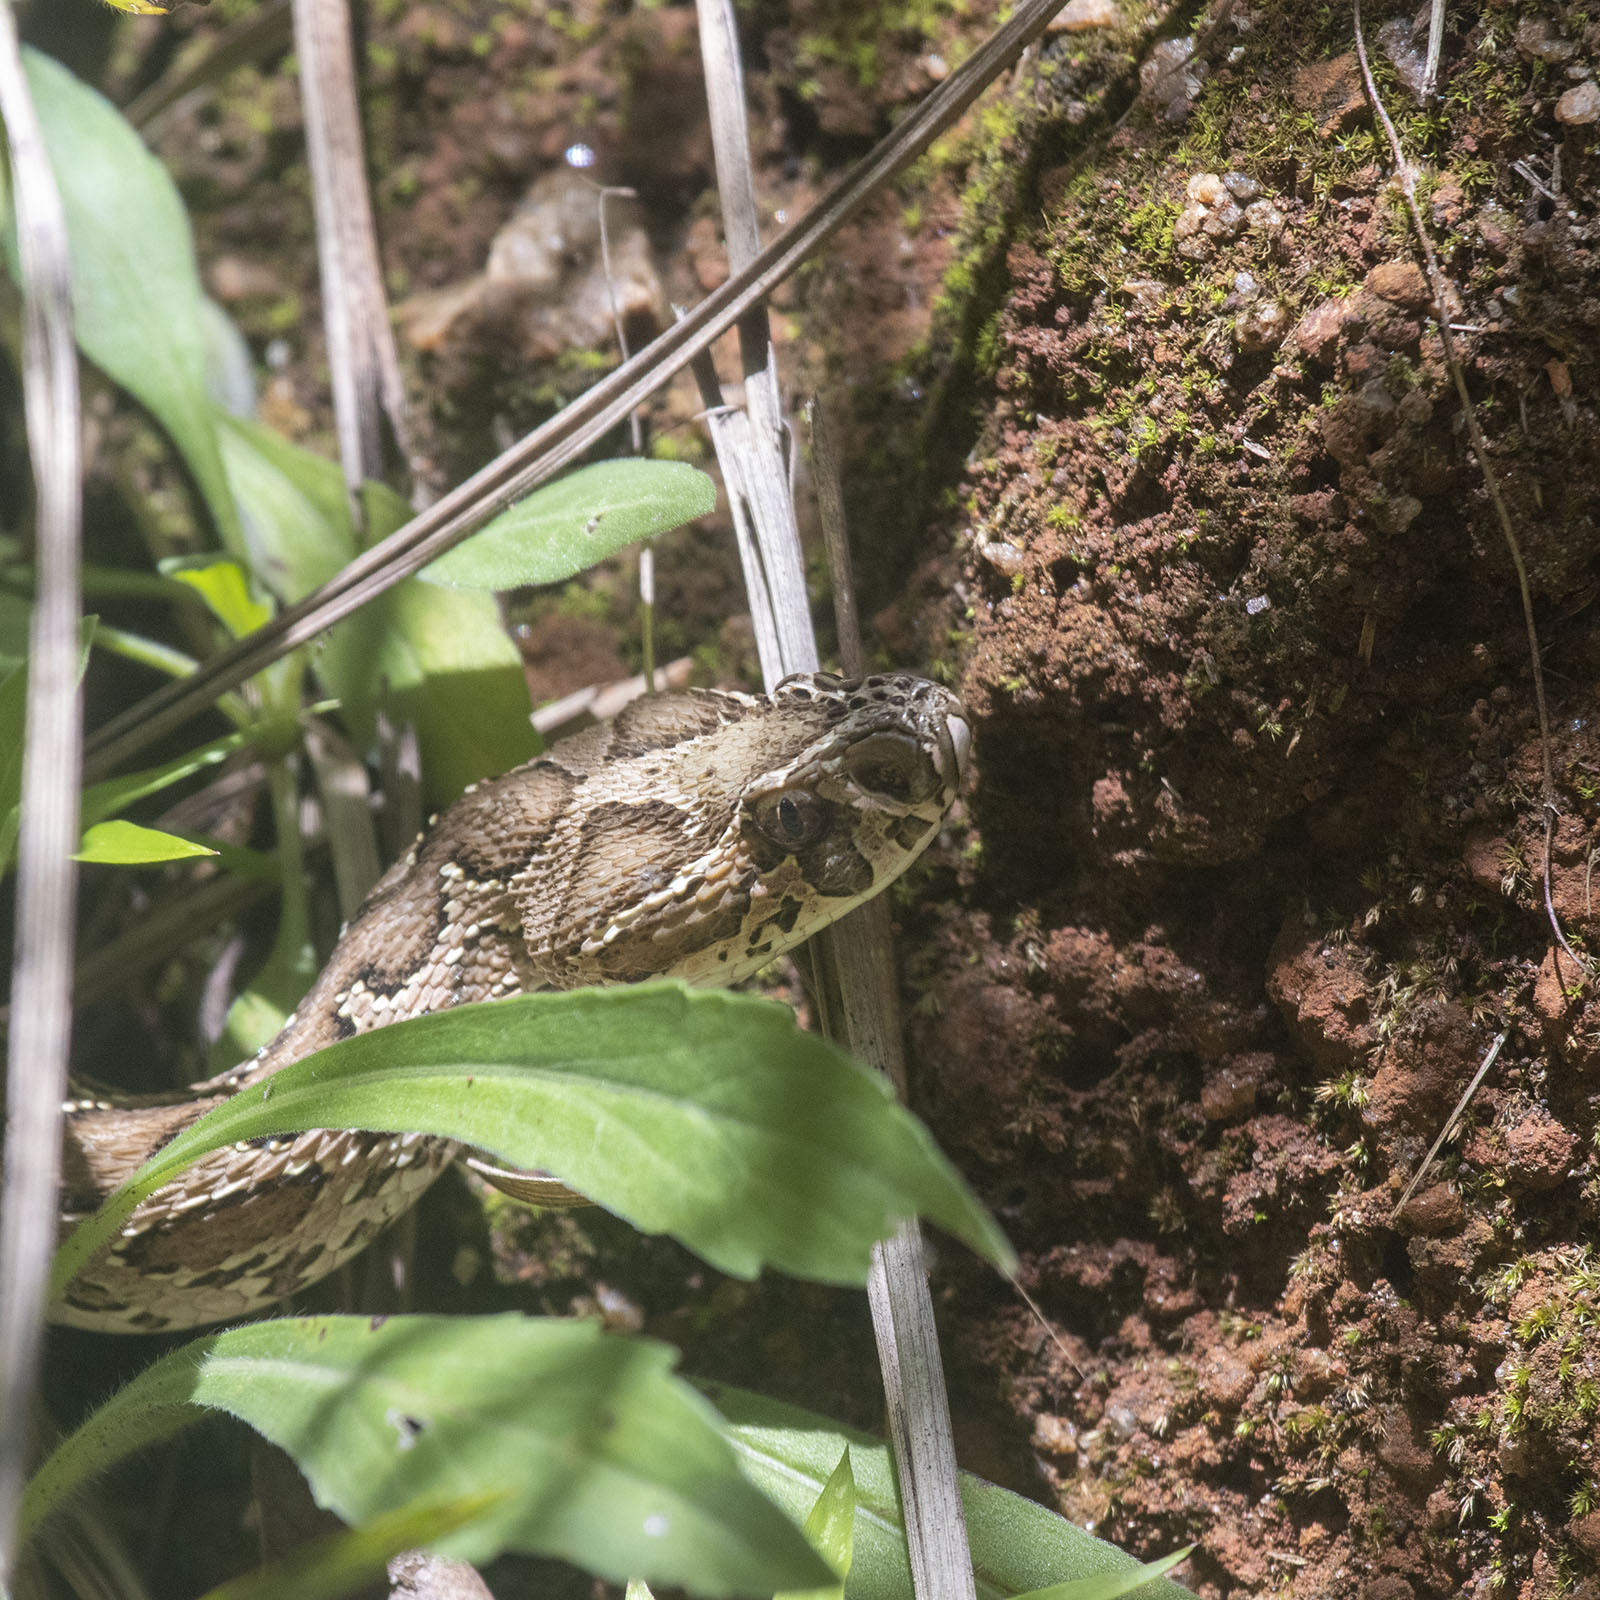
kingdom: Animalia
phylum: Chordata
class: Squamata
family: Viperidae
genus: Daboia
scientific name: Daboia russelii
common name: Western russel’s viper
